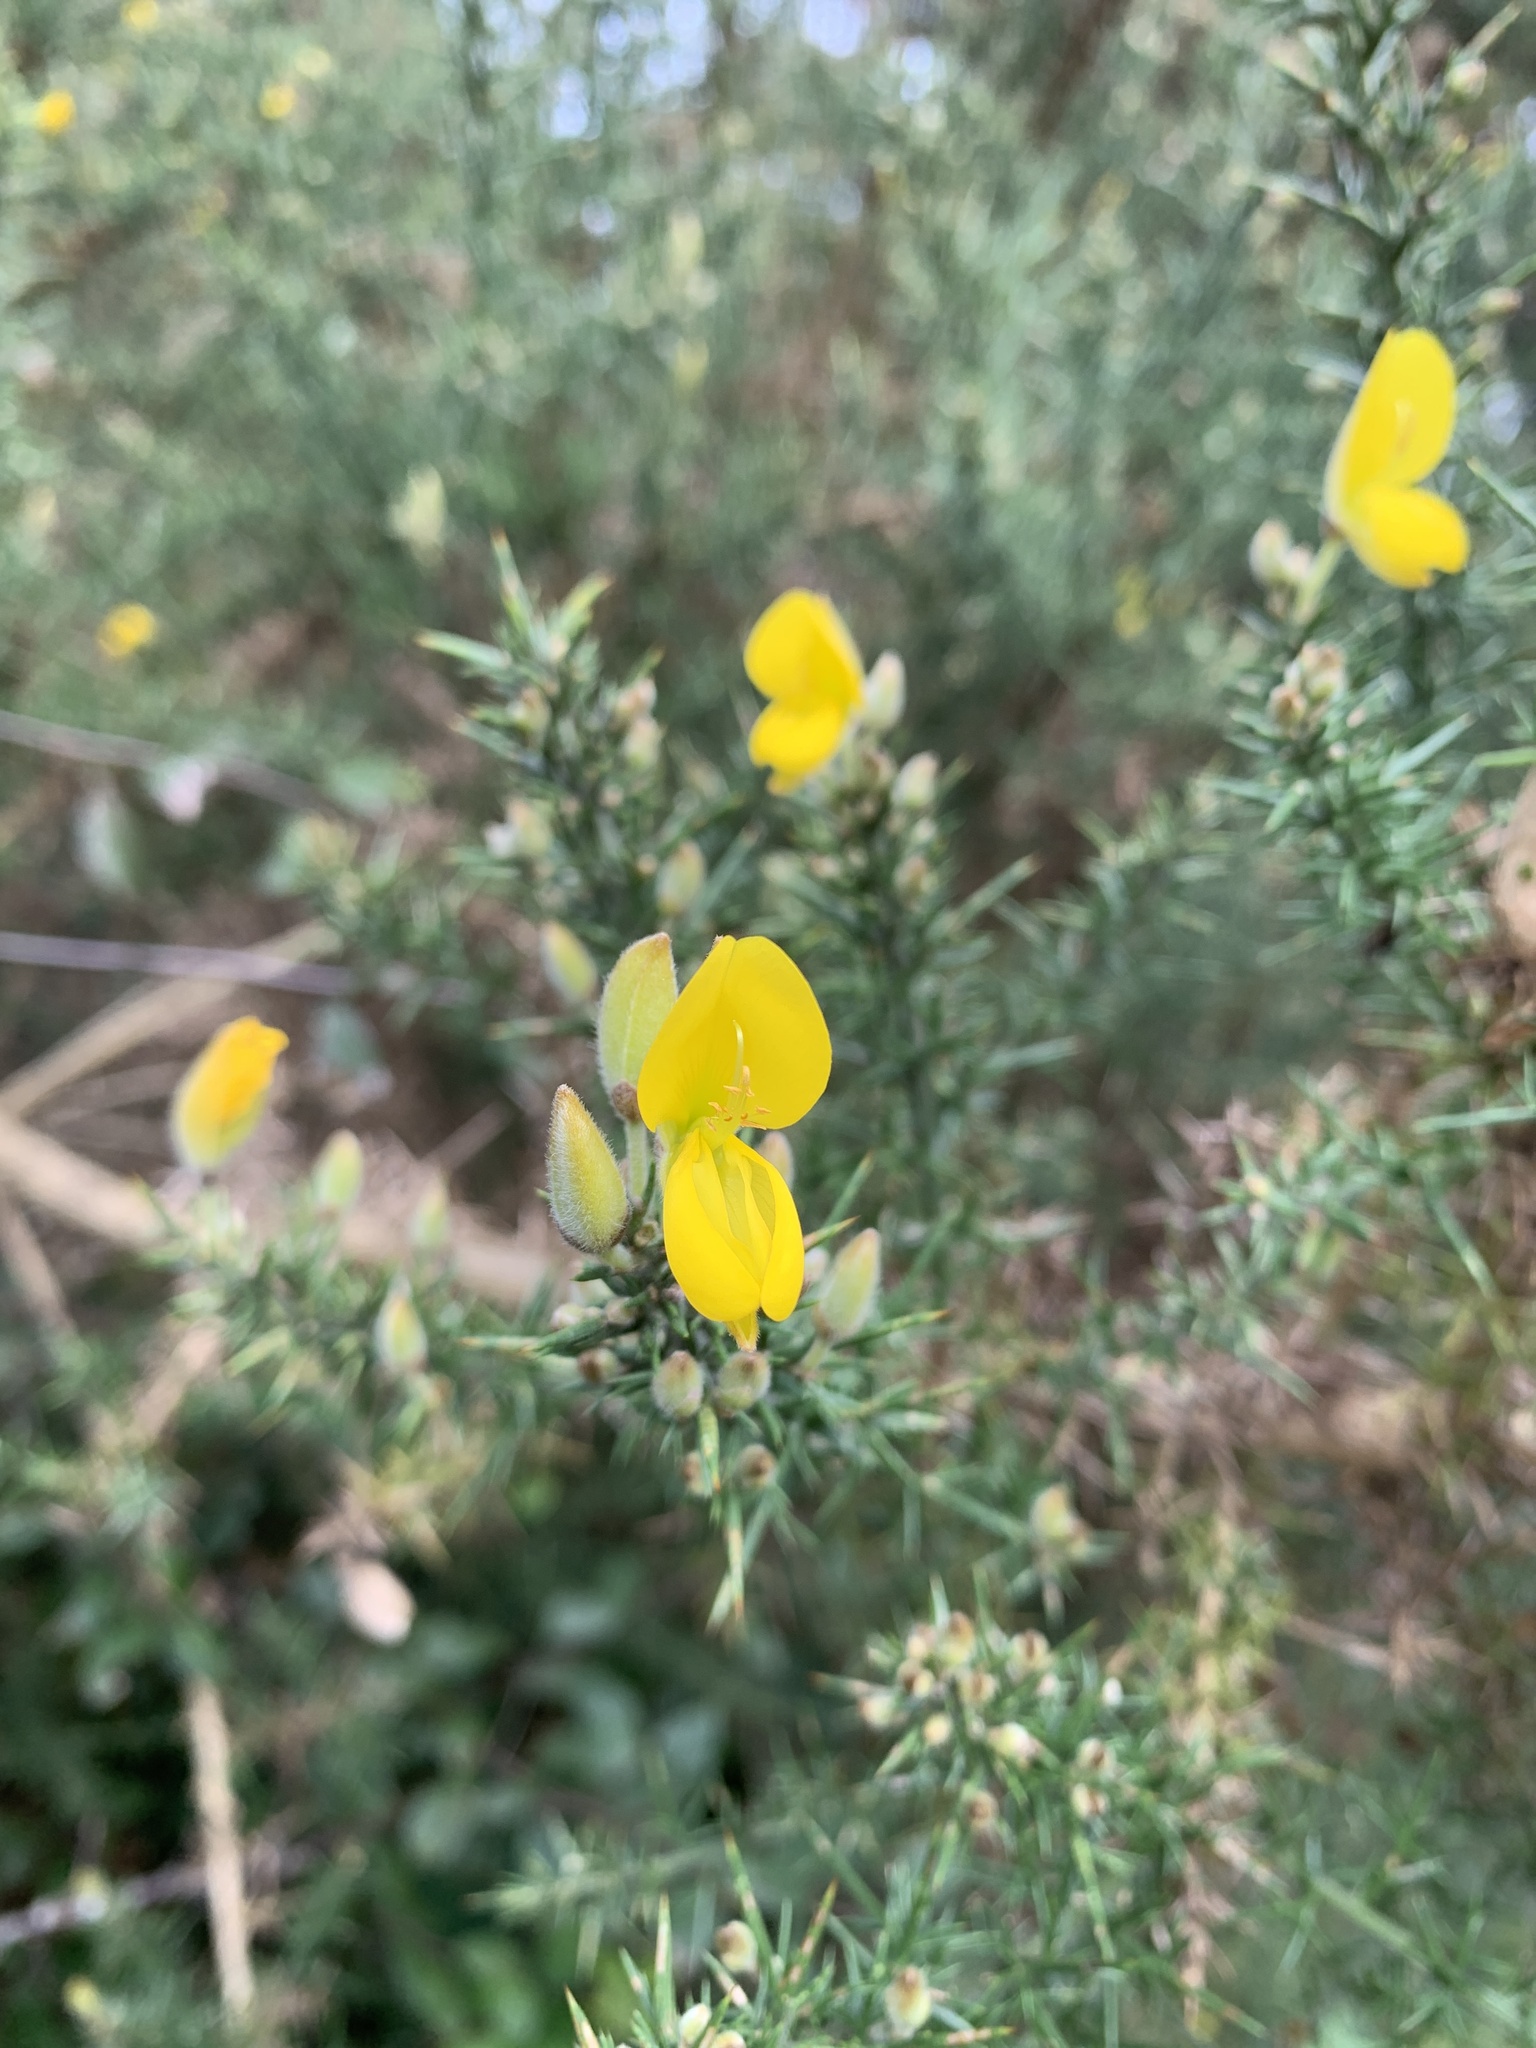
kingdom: Plantae
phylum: Tracheophyta
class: Magnoliopsida
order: Fabales
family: Fabaceae
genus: Ulex
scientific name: Ulex europaeus
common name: Common gorse
